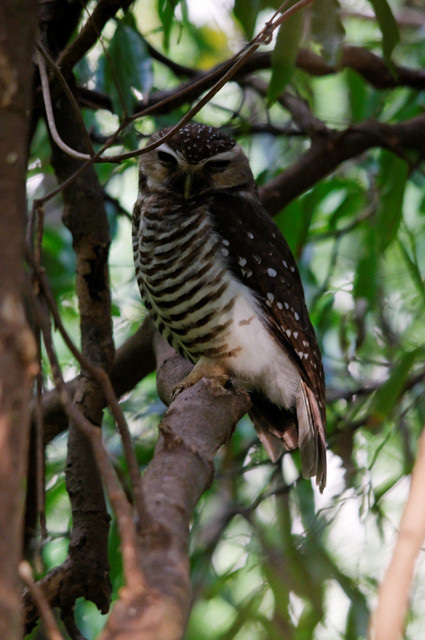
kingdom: Animalia
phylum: Chordata
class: Aves
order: Strigiformes
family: Strigidae
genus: Ninox
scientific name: Ninox superciliaris
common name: White-browed hawk-owl
